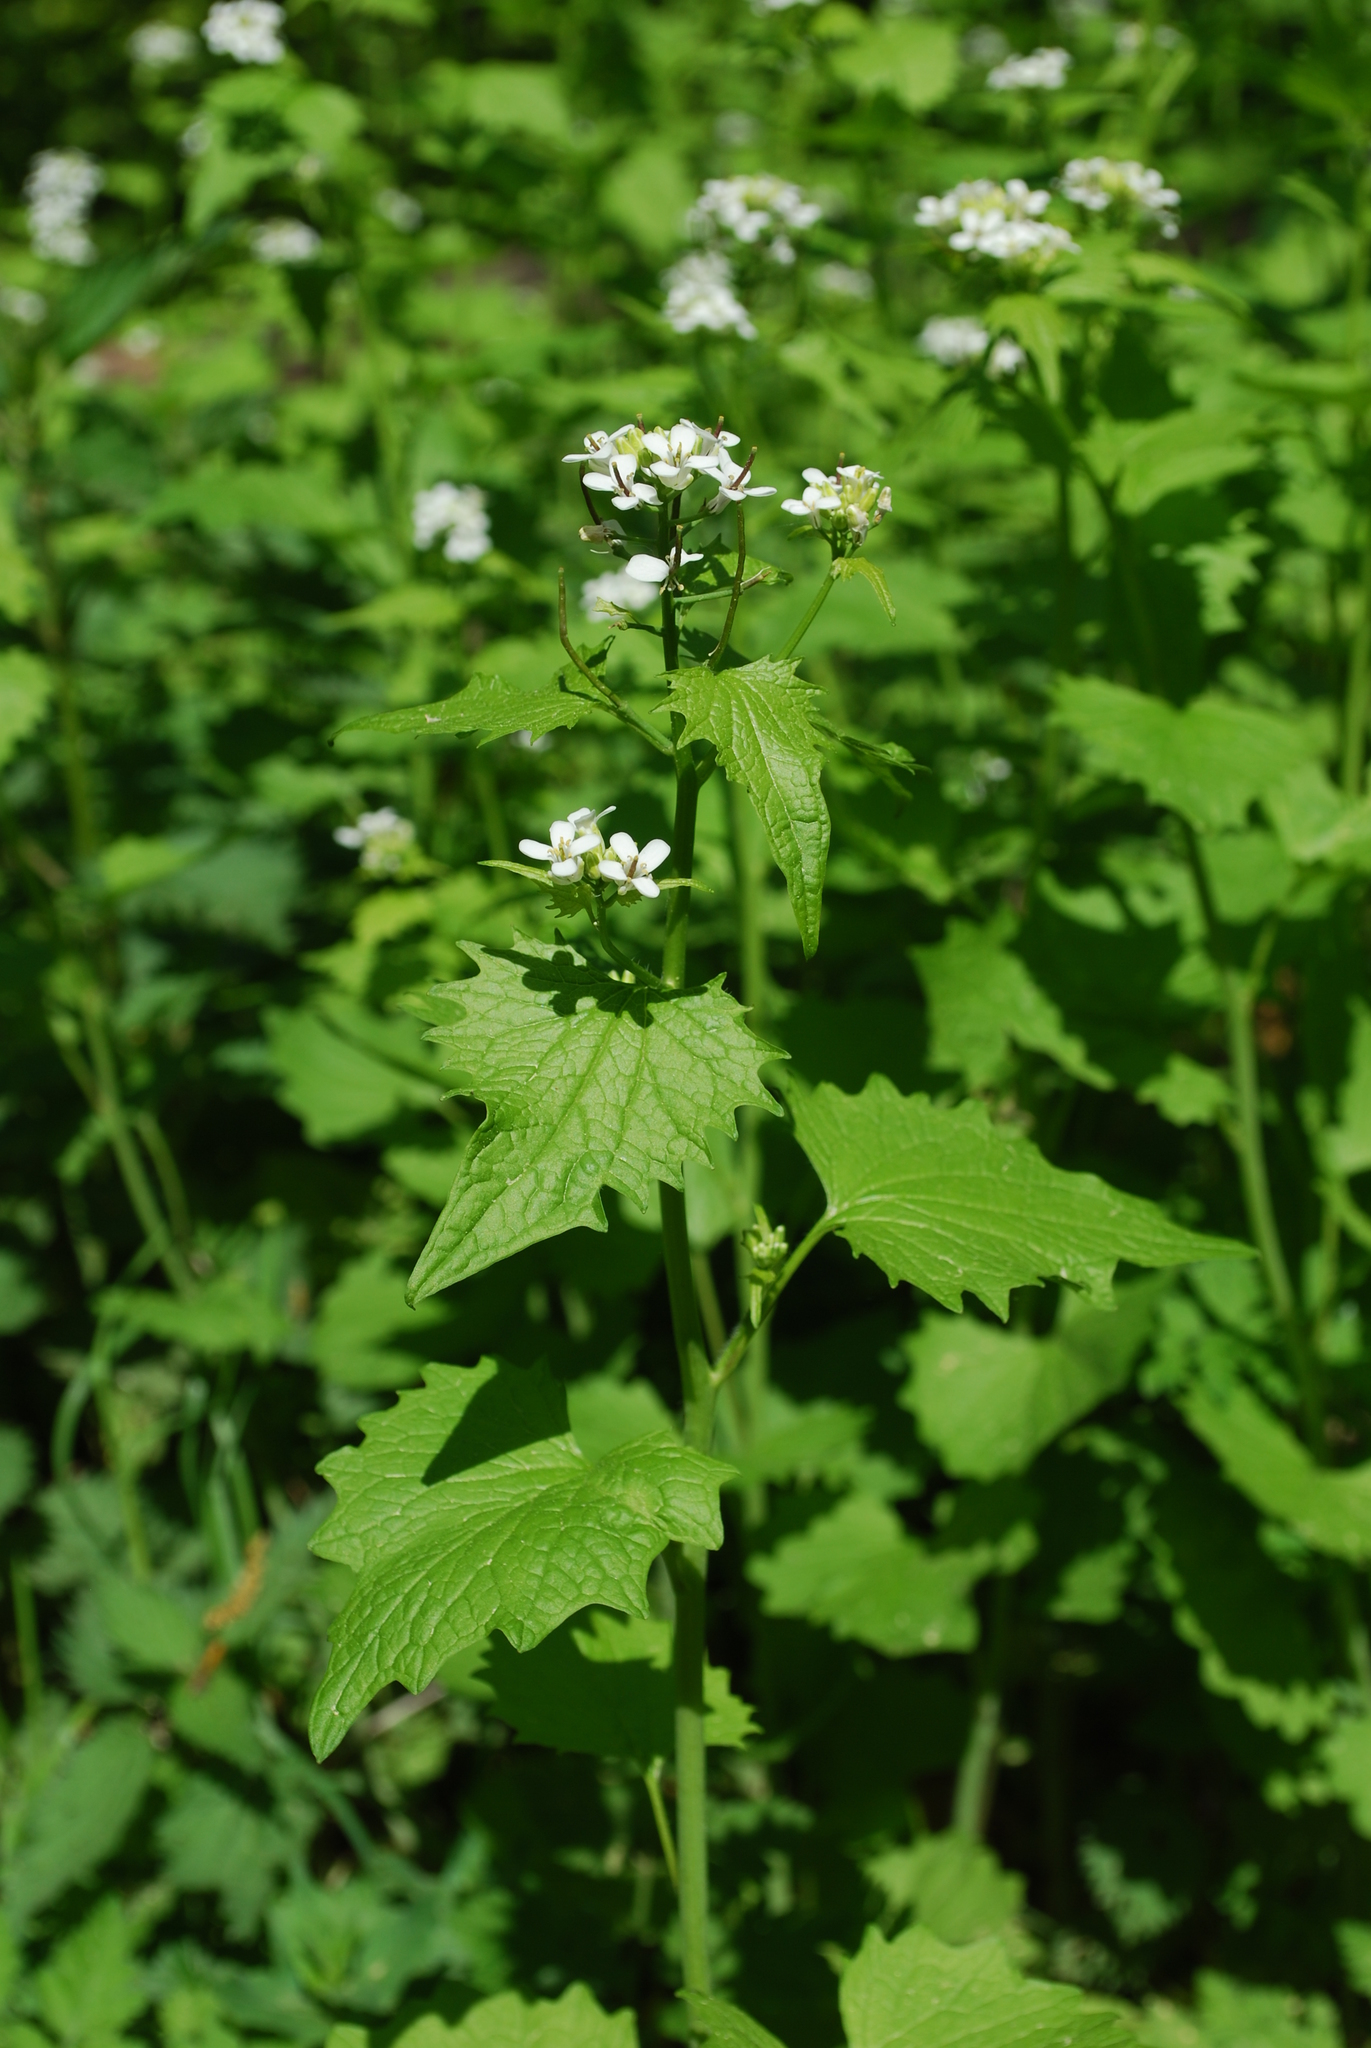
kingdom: Plantae
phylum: Tracheophyta
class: Magnoliopsida
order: Brassicales
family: Brassicaceae
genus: Alliaria
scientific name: Alliaria petiolata
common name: Garlic mustard
